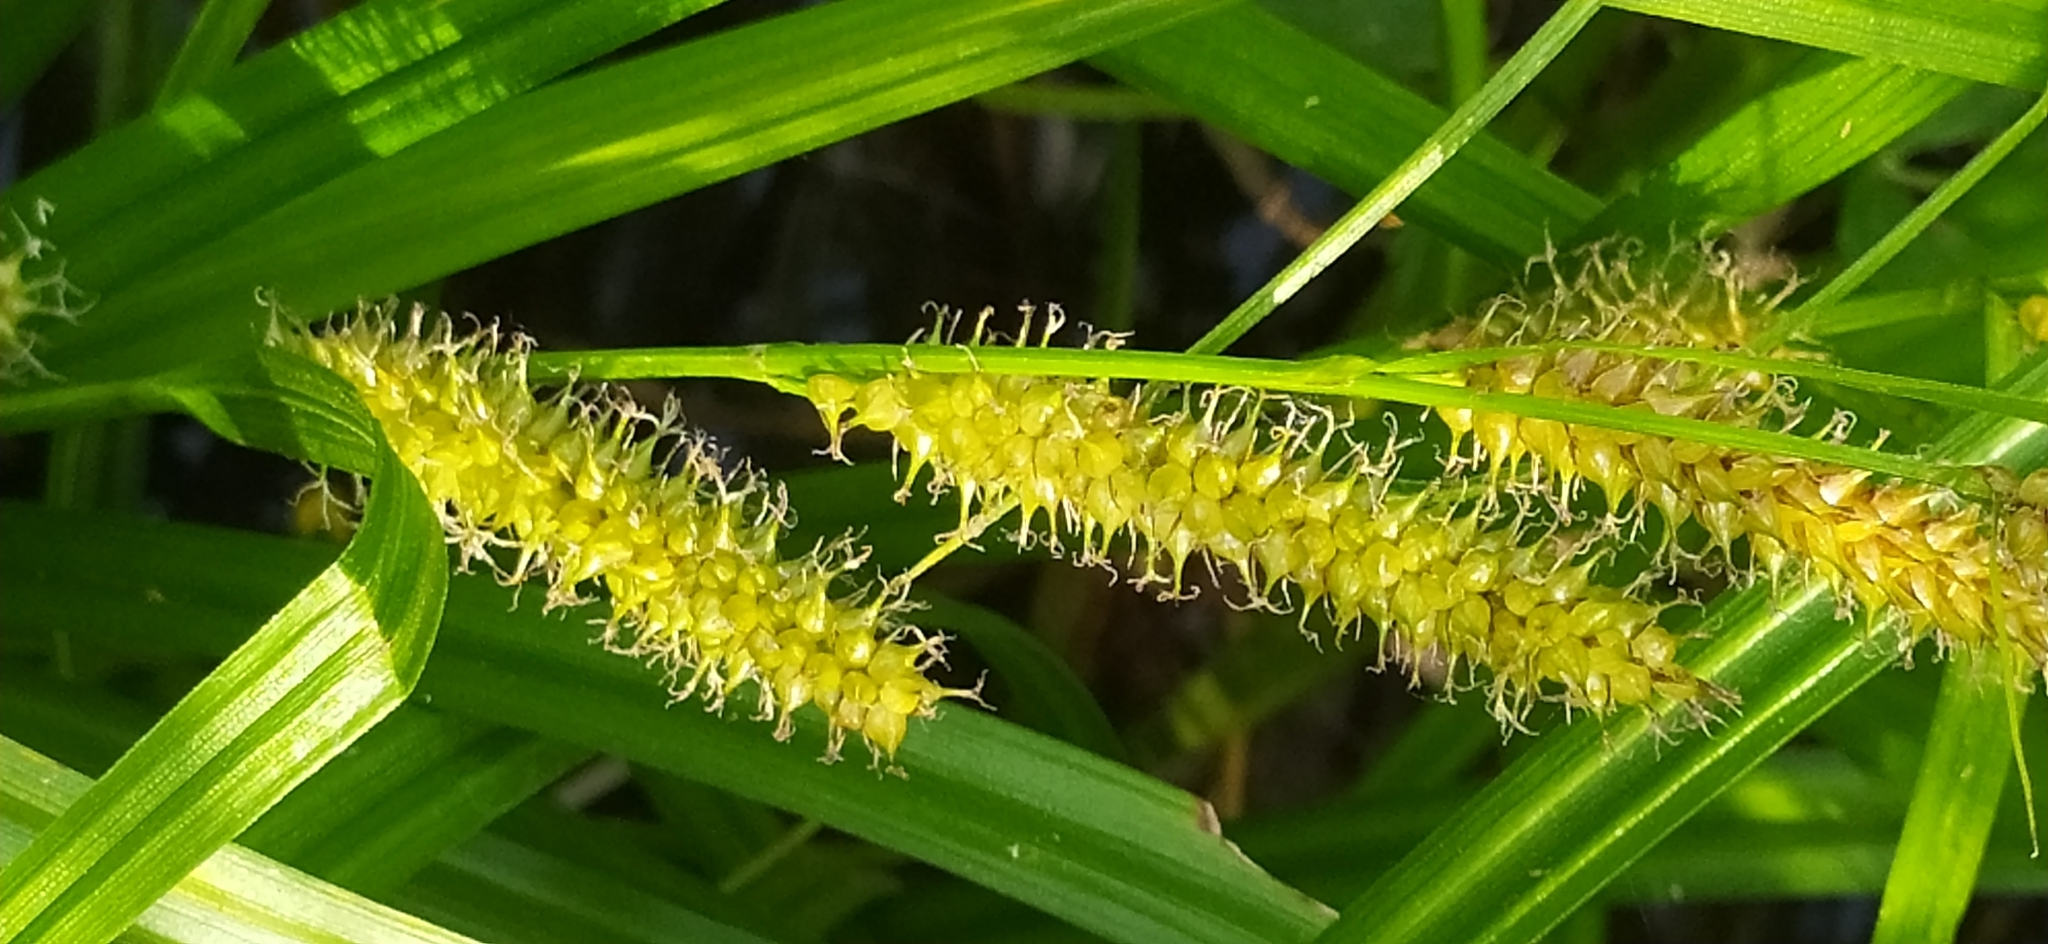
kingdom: Plantae
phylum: Tracheophyta
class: Liliopsida
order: Poales
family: Cyperaceae
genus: Carex
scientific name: Carex utriculata
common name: Beaked sedge
